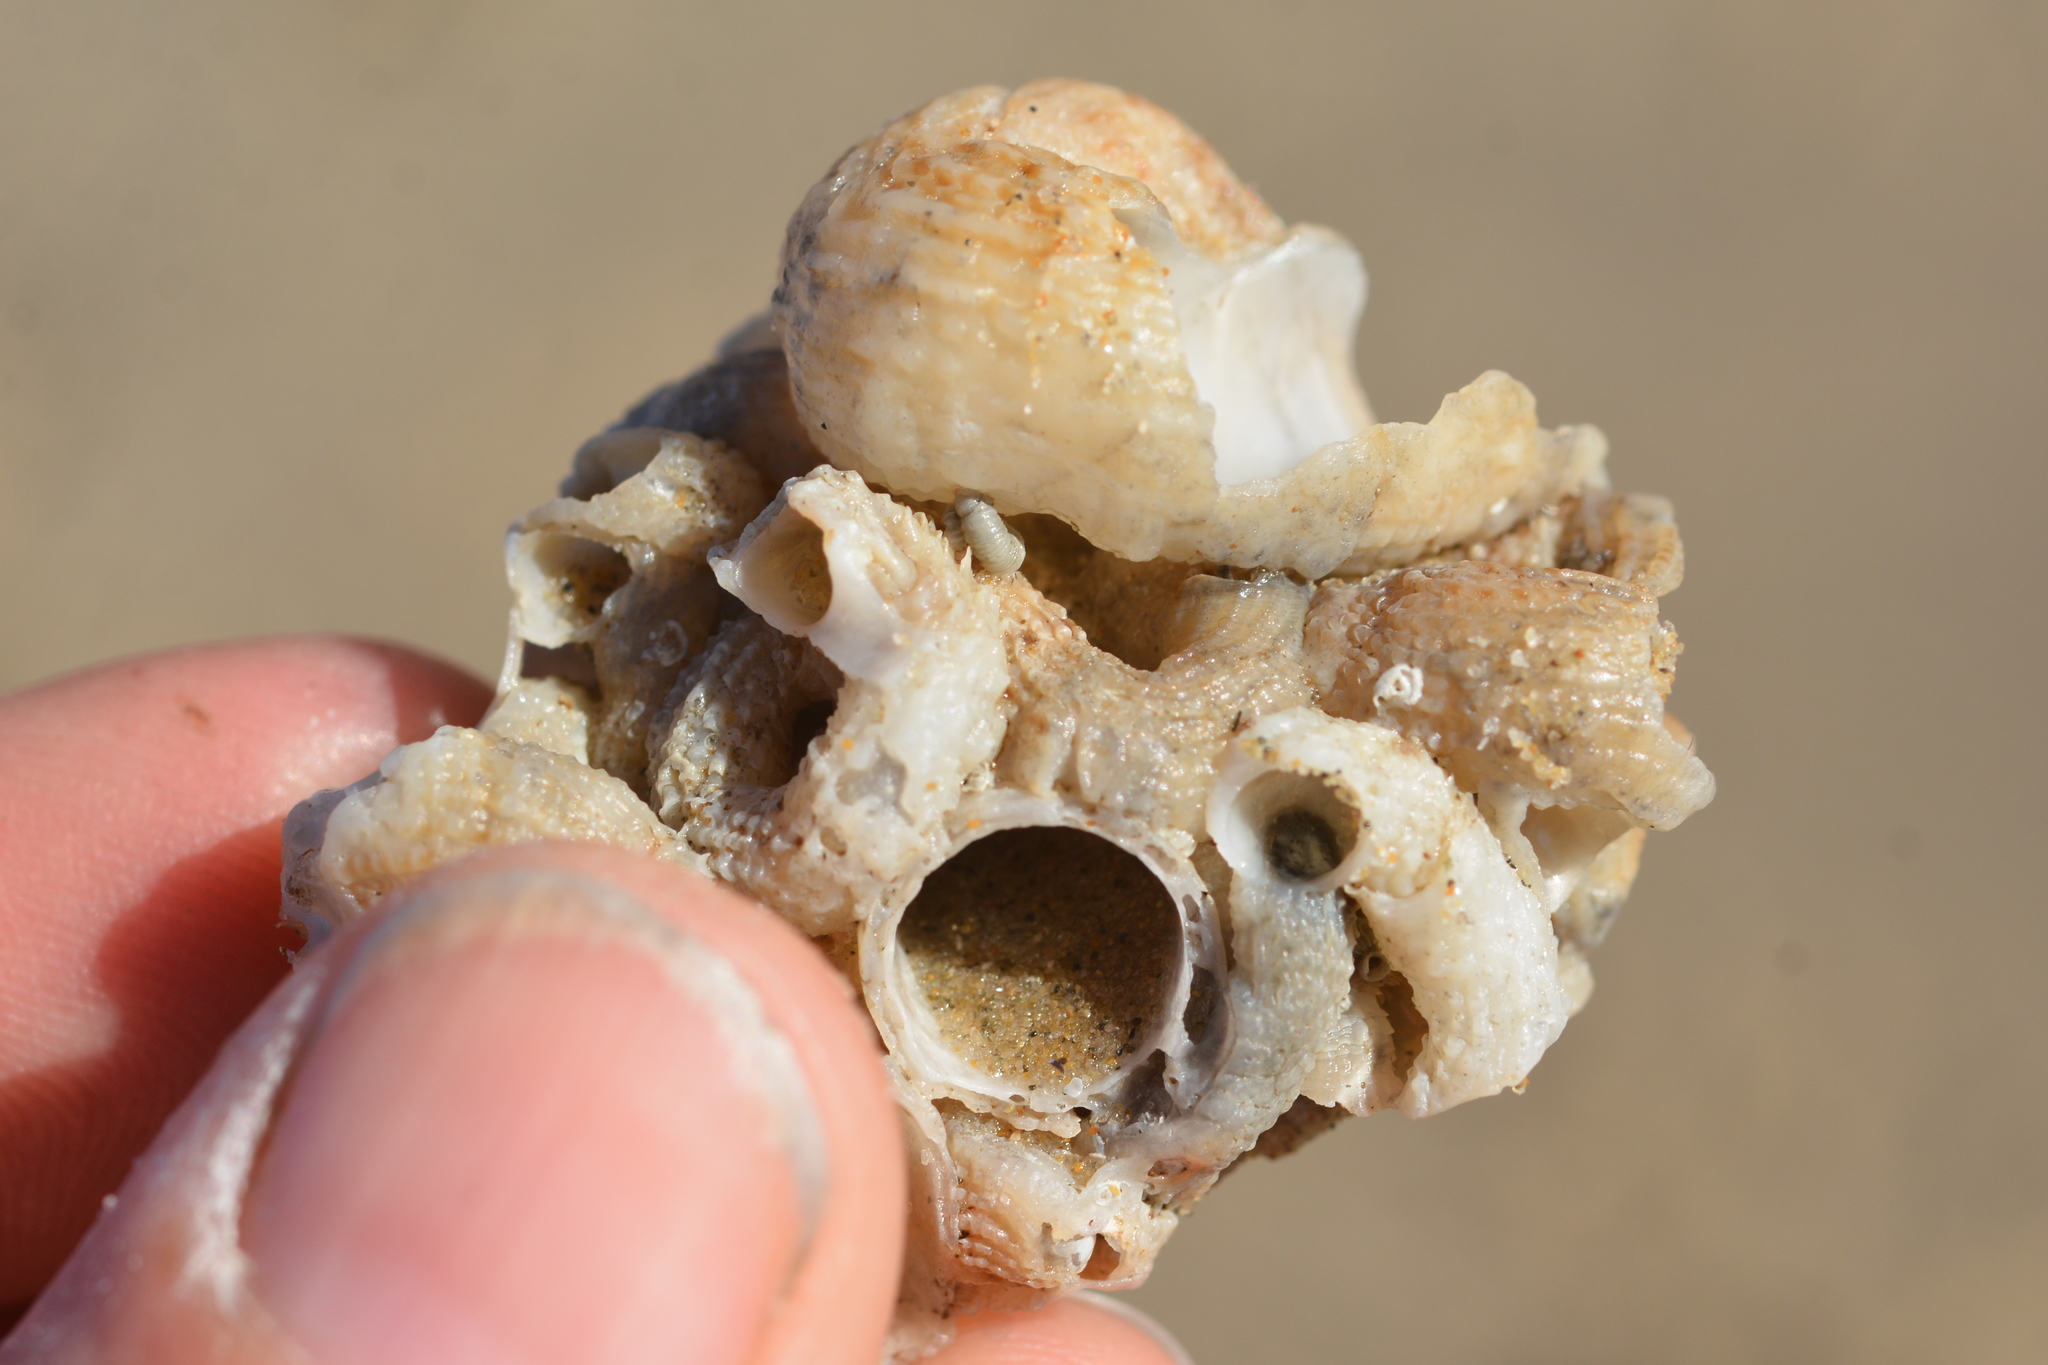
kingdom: Animalia
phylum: Mollusca
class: Gastropoda
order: Littorinimorpha
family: Vermetidae
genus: Thylacodes
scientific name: Thylacodes squamigerus
